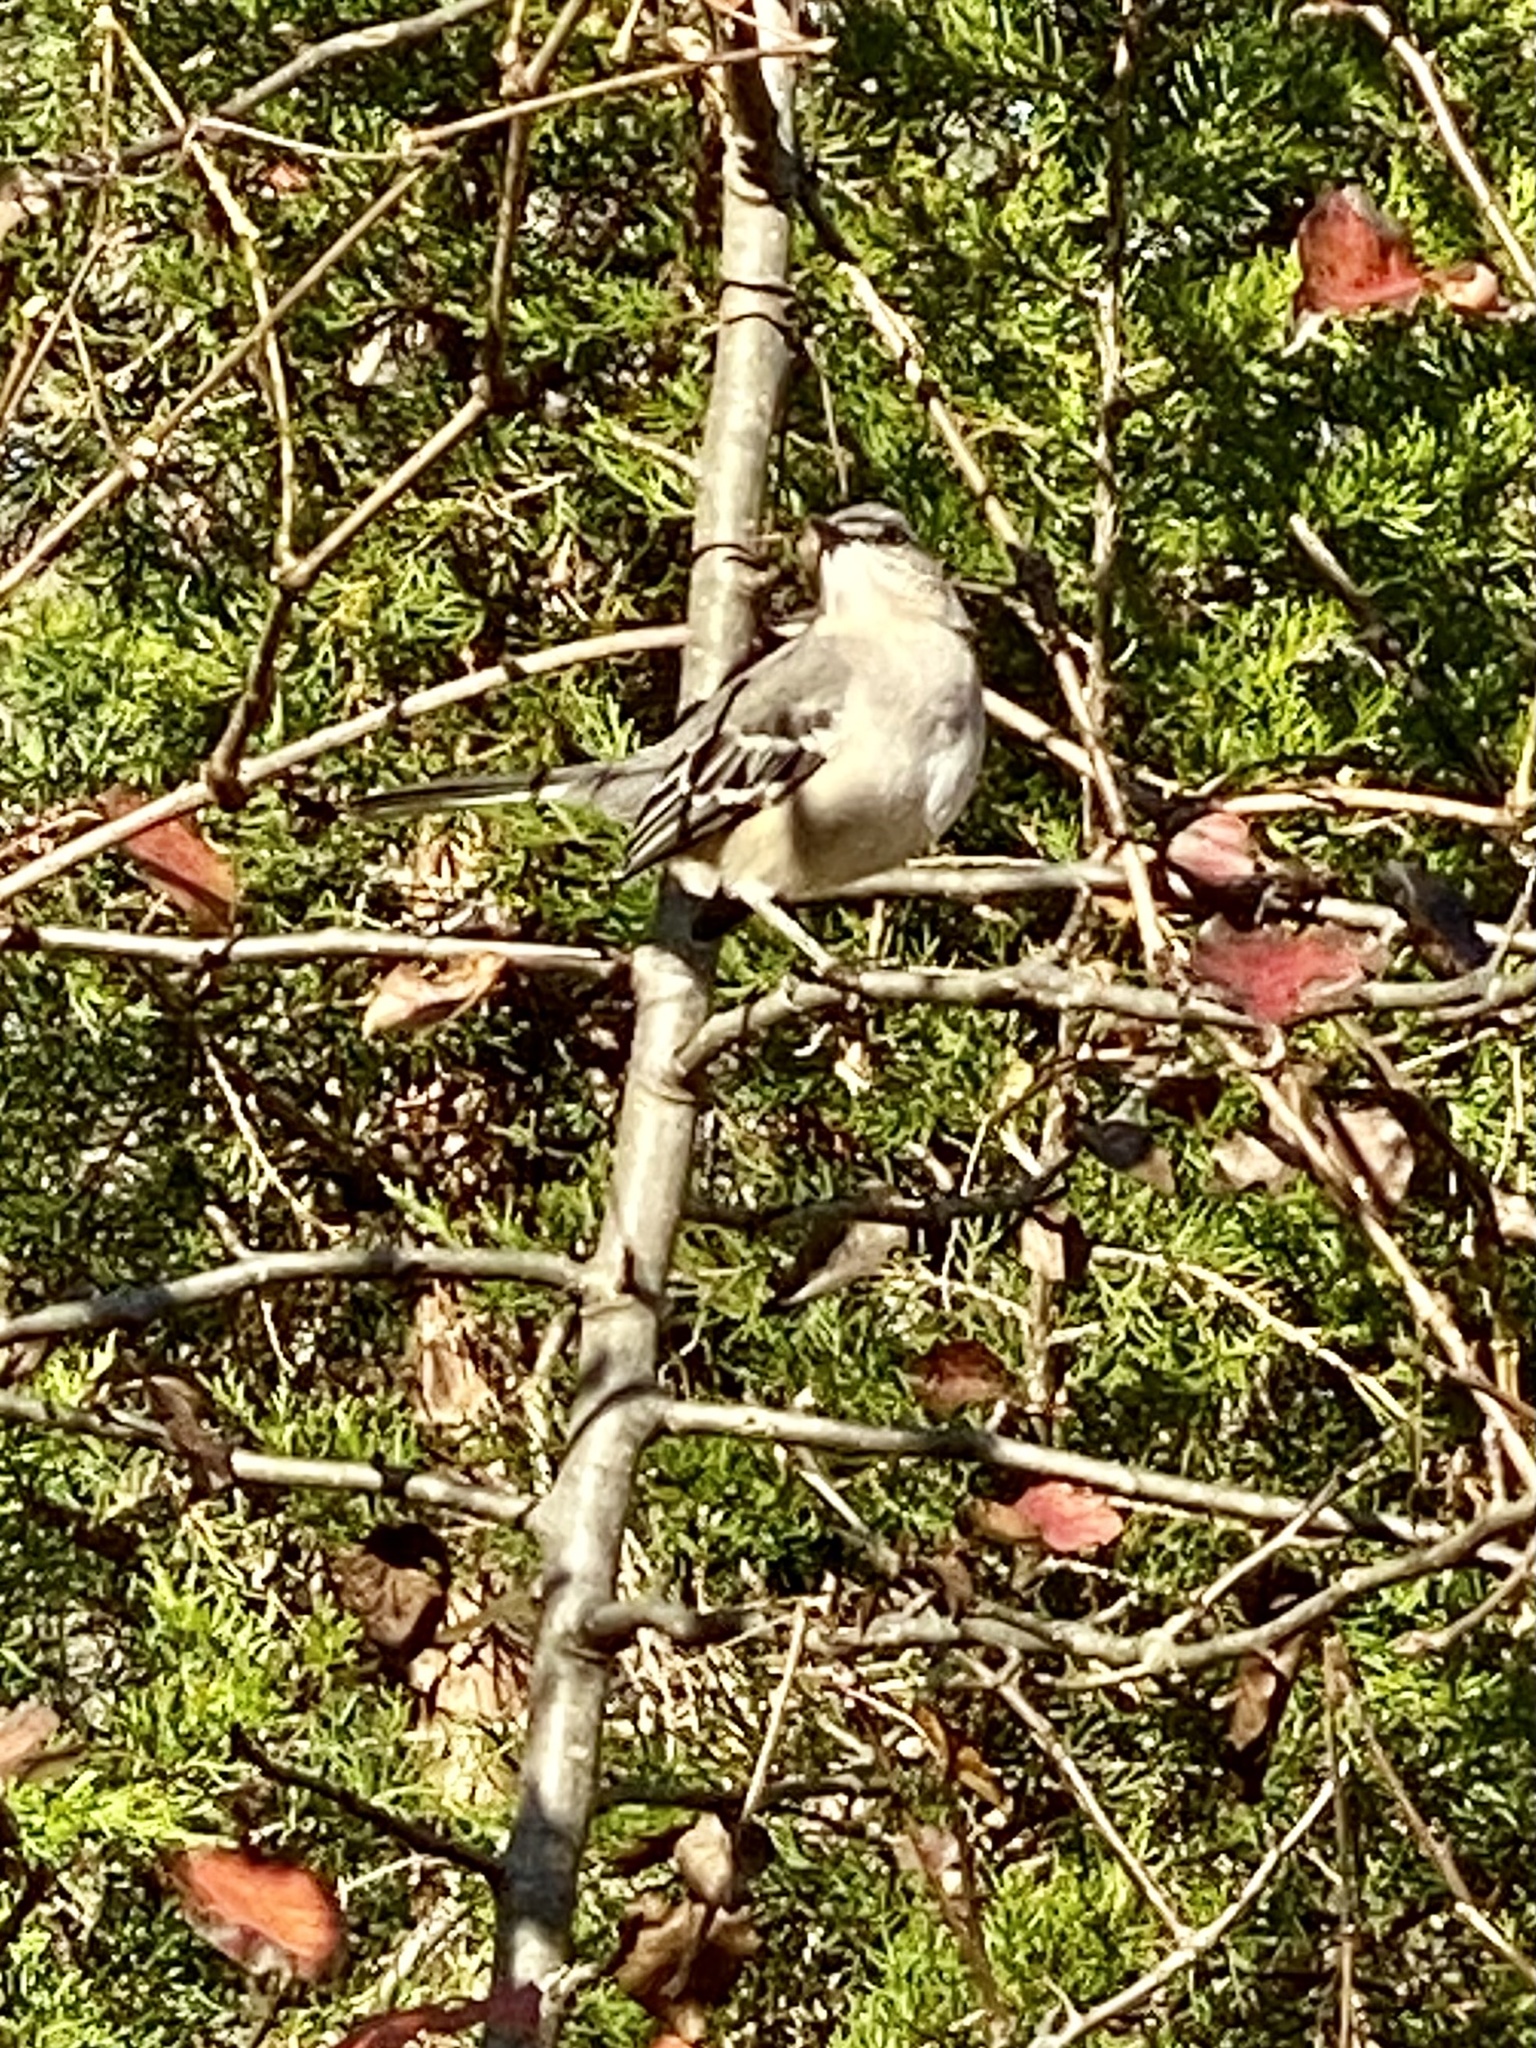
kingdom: Animalia
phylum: Chordata
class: Aves
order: Passeriformes
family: Mimidae
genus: Mimus
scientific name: Mimus polyglottos
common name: Northern mockingbird
